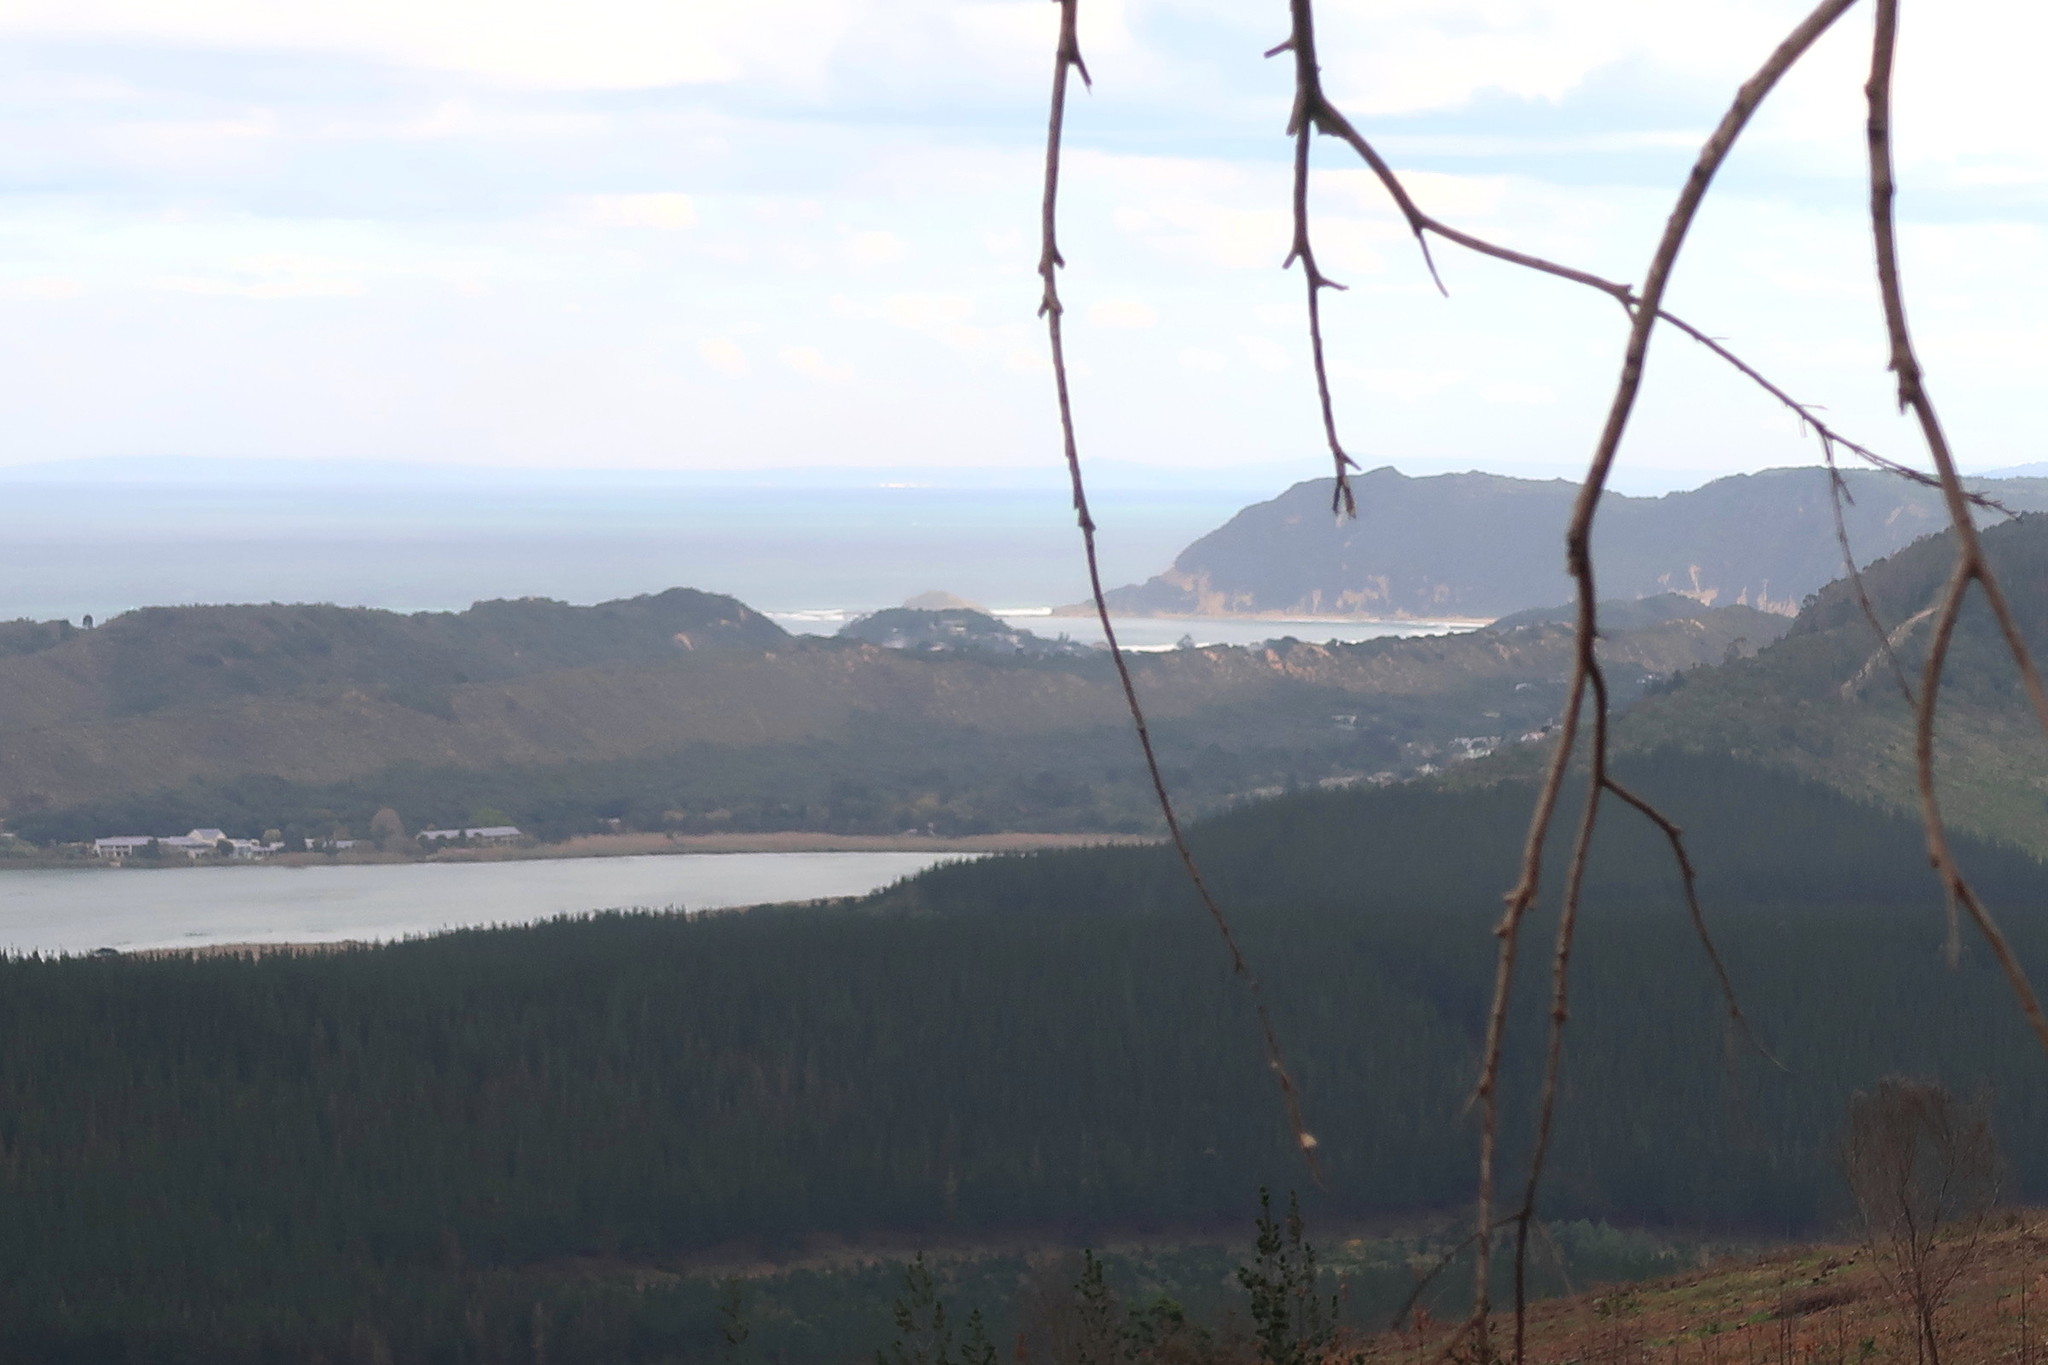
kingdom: Plantae
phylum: Tracheophyta
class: Pinopsida
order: Pinales
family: Pinaceae
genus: Pinus
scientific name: Pinus radiata
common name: Monterey pine
